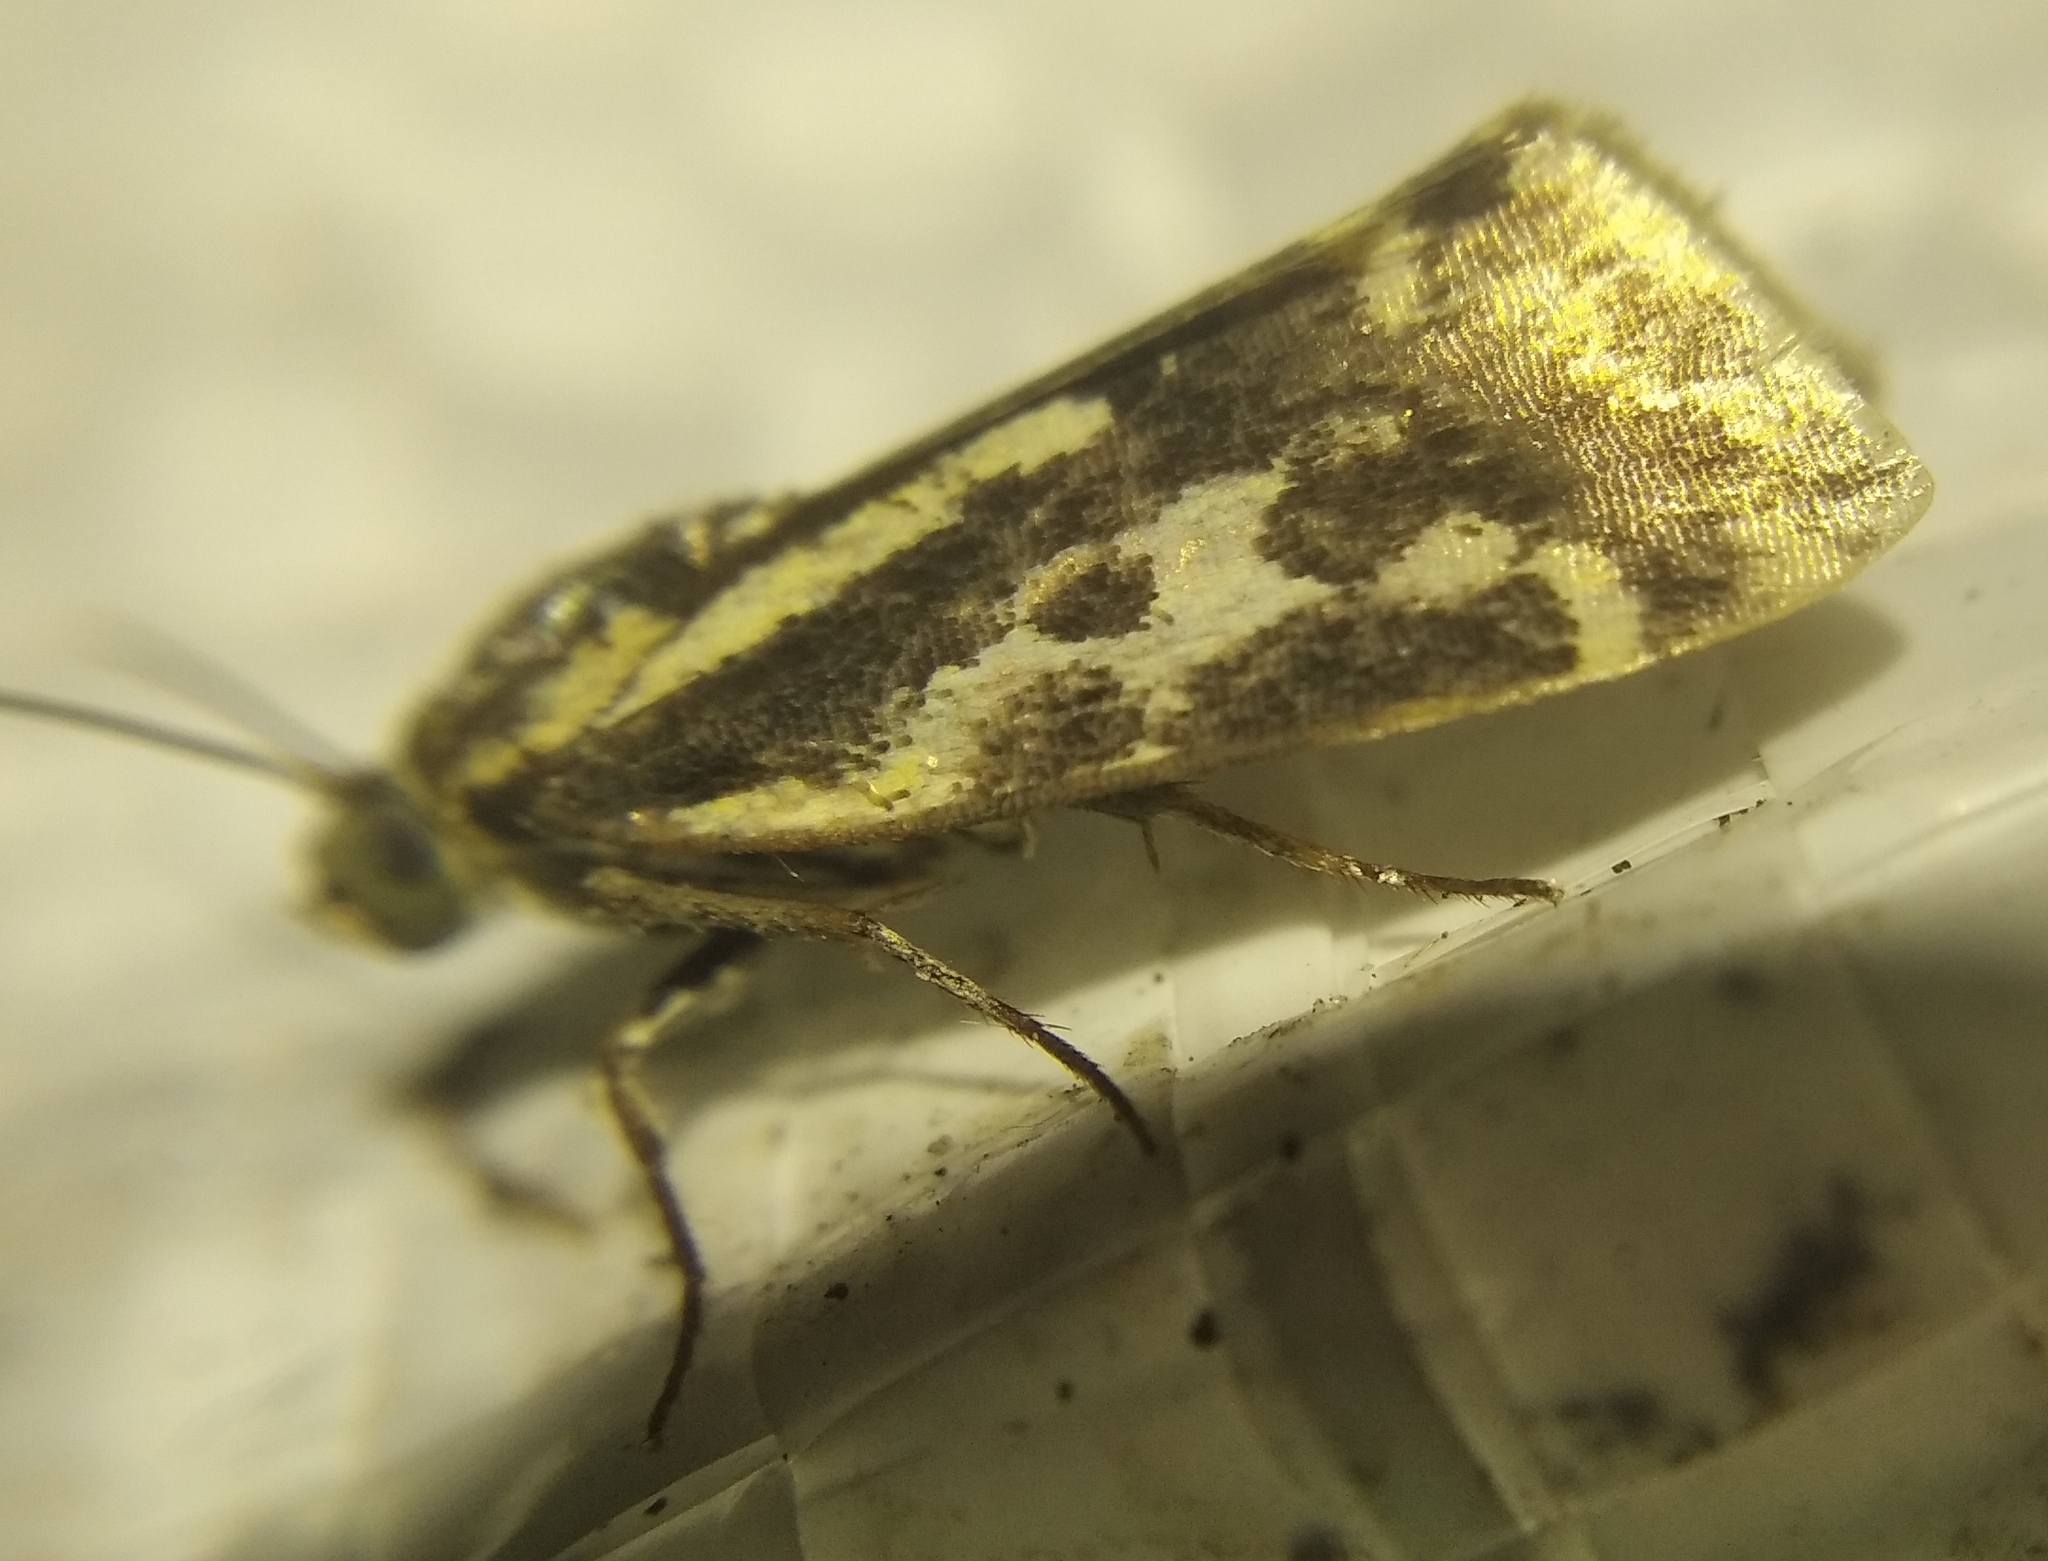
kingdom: Animalia
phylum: Arthropoda
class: Insecta
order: Lepidoptera
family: Noctuidae
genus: Acontia
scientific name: Acontia trabealis
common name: Spotted sulphur
